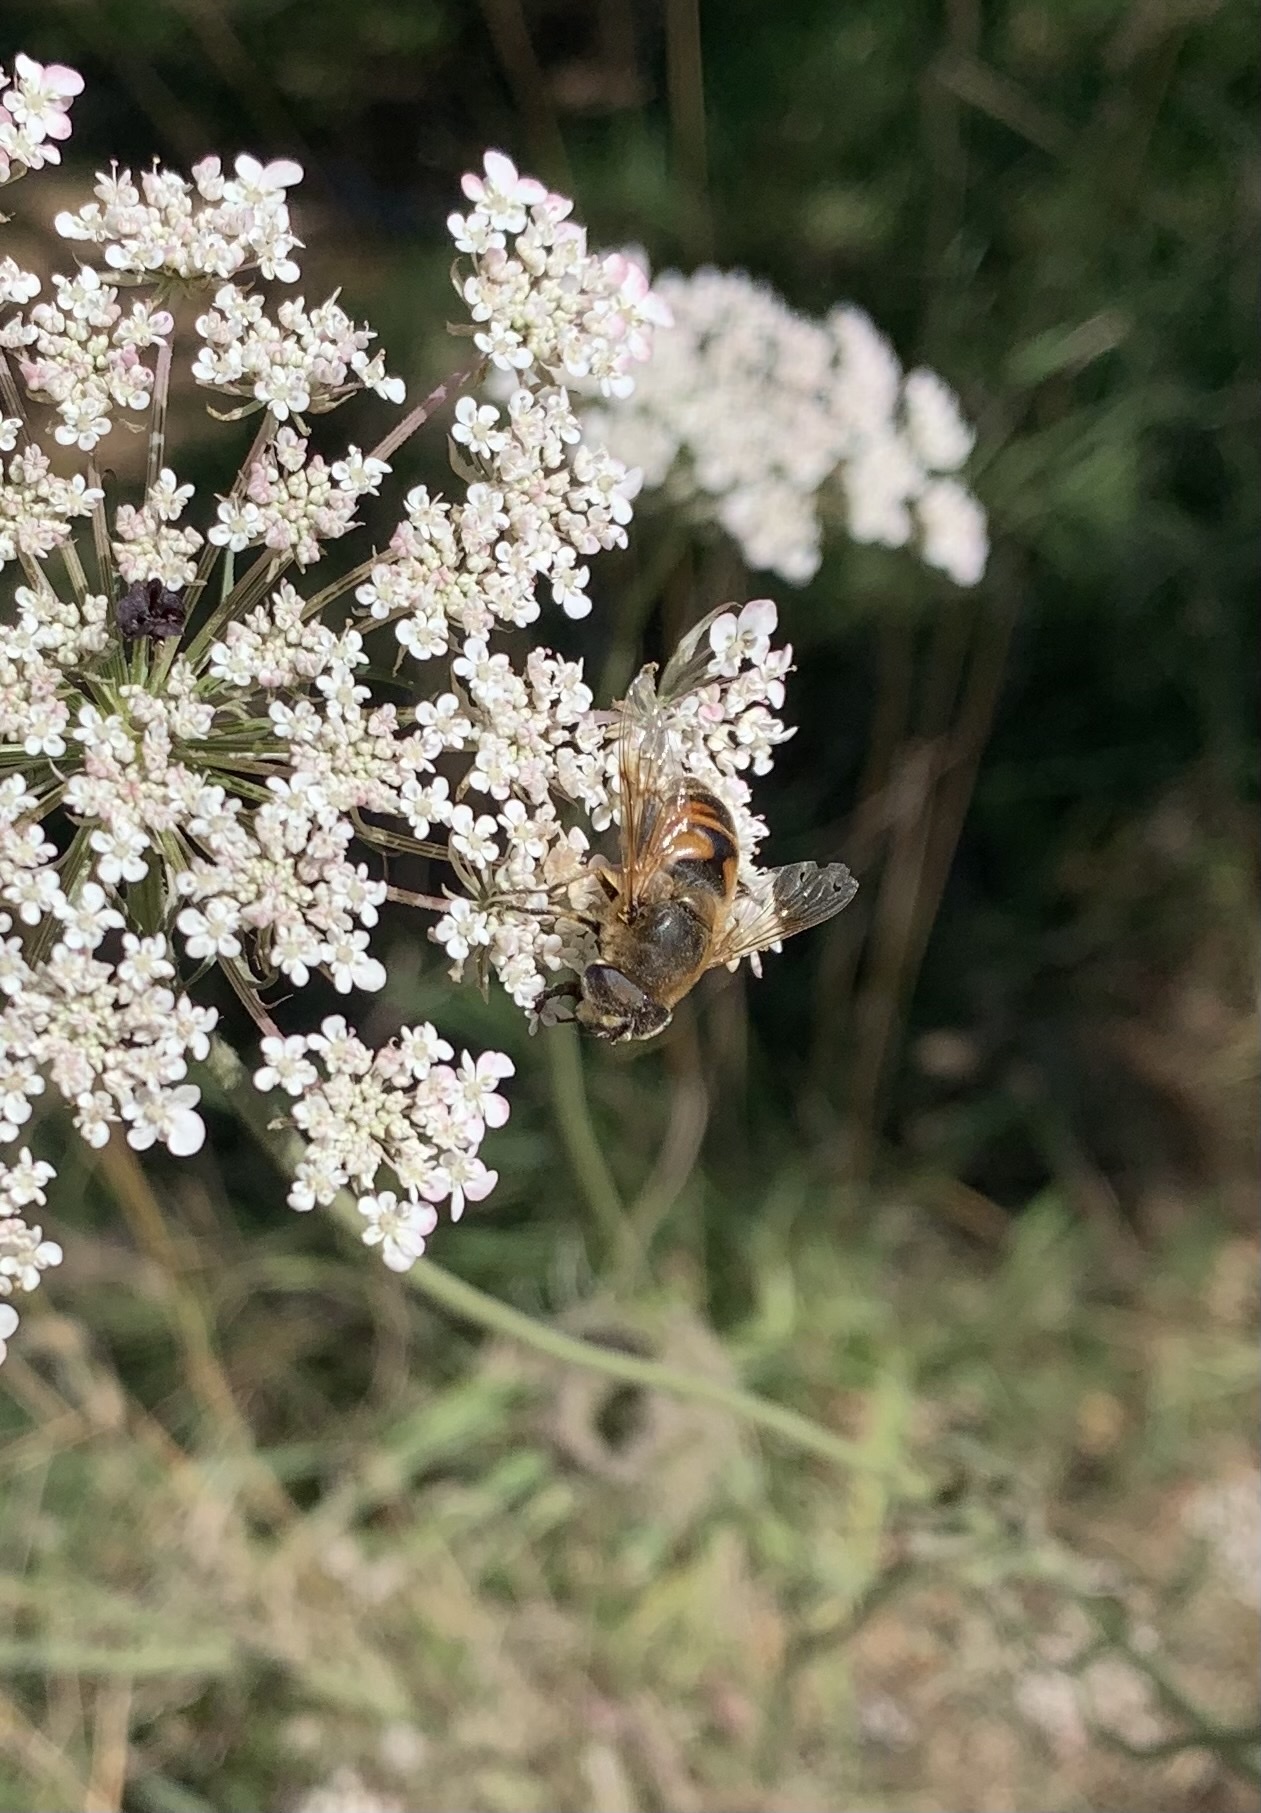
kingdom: Animalia
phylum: Arthropoda
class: Insecta
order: Diptera
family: Syrphidae
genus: Eristalis
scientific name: Eristalis tenax
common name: Drone fly
